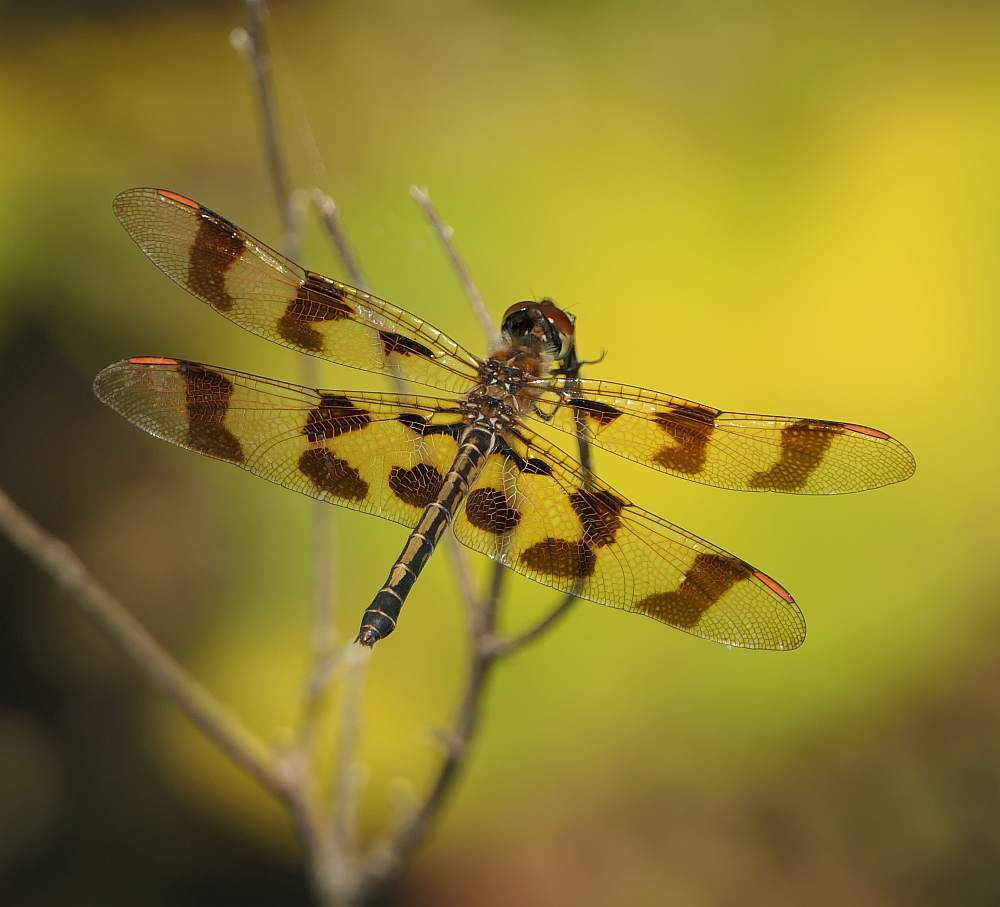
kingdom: Animalia
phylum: Arthropoda
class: Insecta
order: Odonata
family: Libellulidae
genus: Celithemis
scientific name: Celithemis eponina
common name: Halloween pennant
